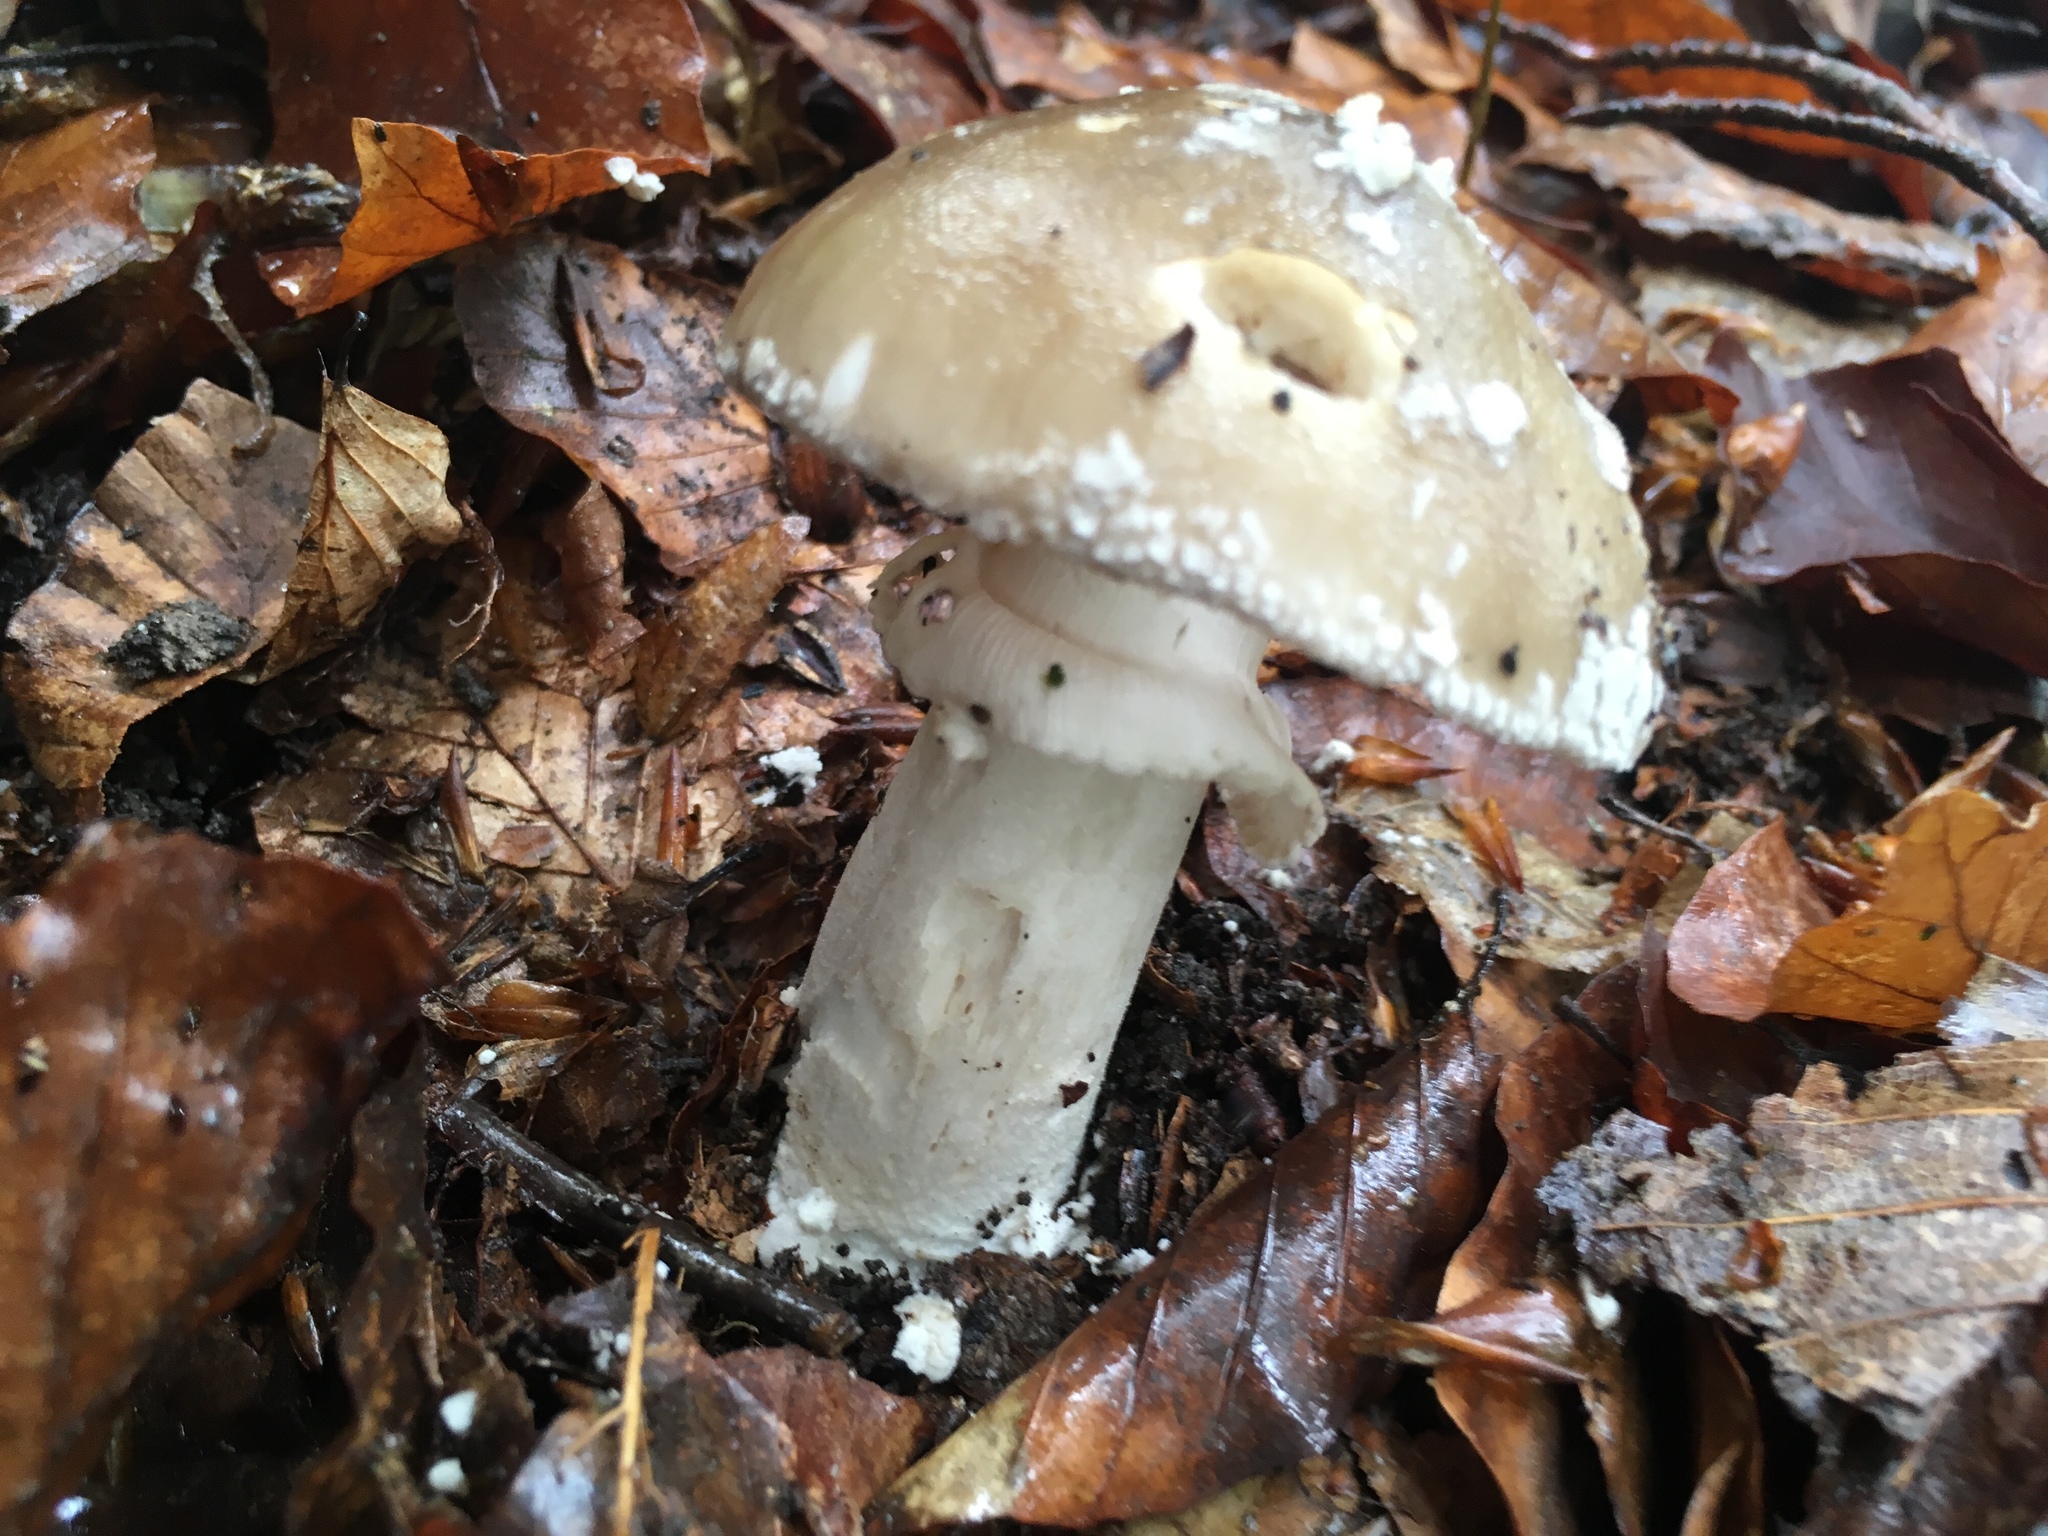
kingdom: Fungi
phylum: Basidiomycota
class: Agaricomycetes
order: Agaricales
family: Amanitaceae
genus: Amanita
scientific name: Amanita excelsa
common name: European false blusher
